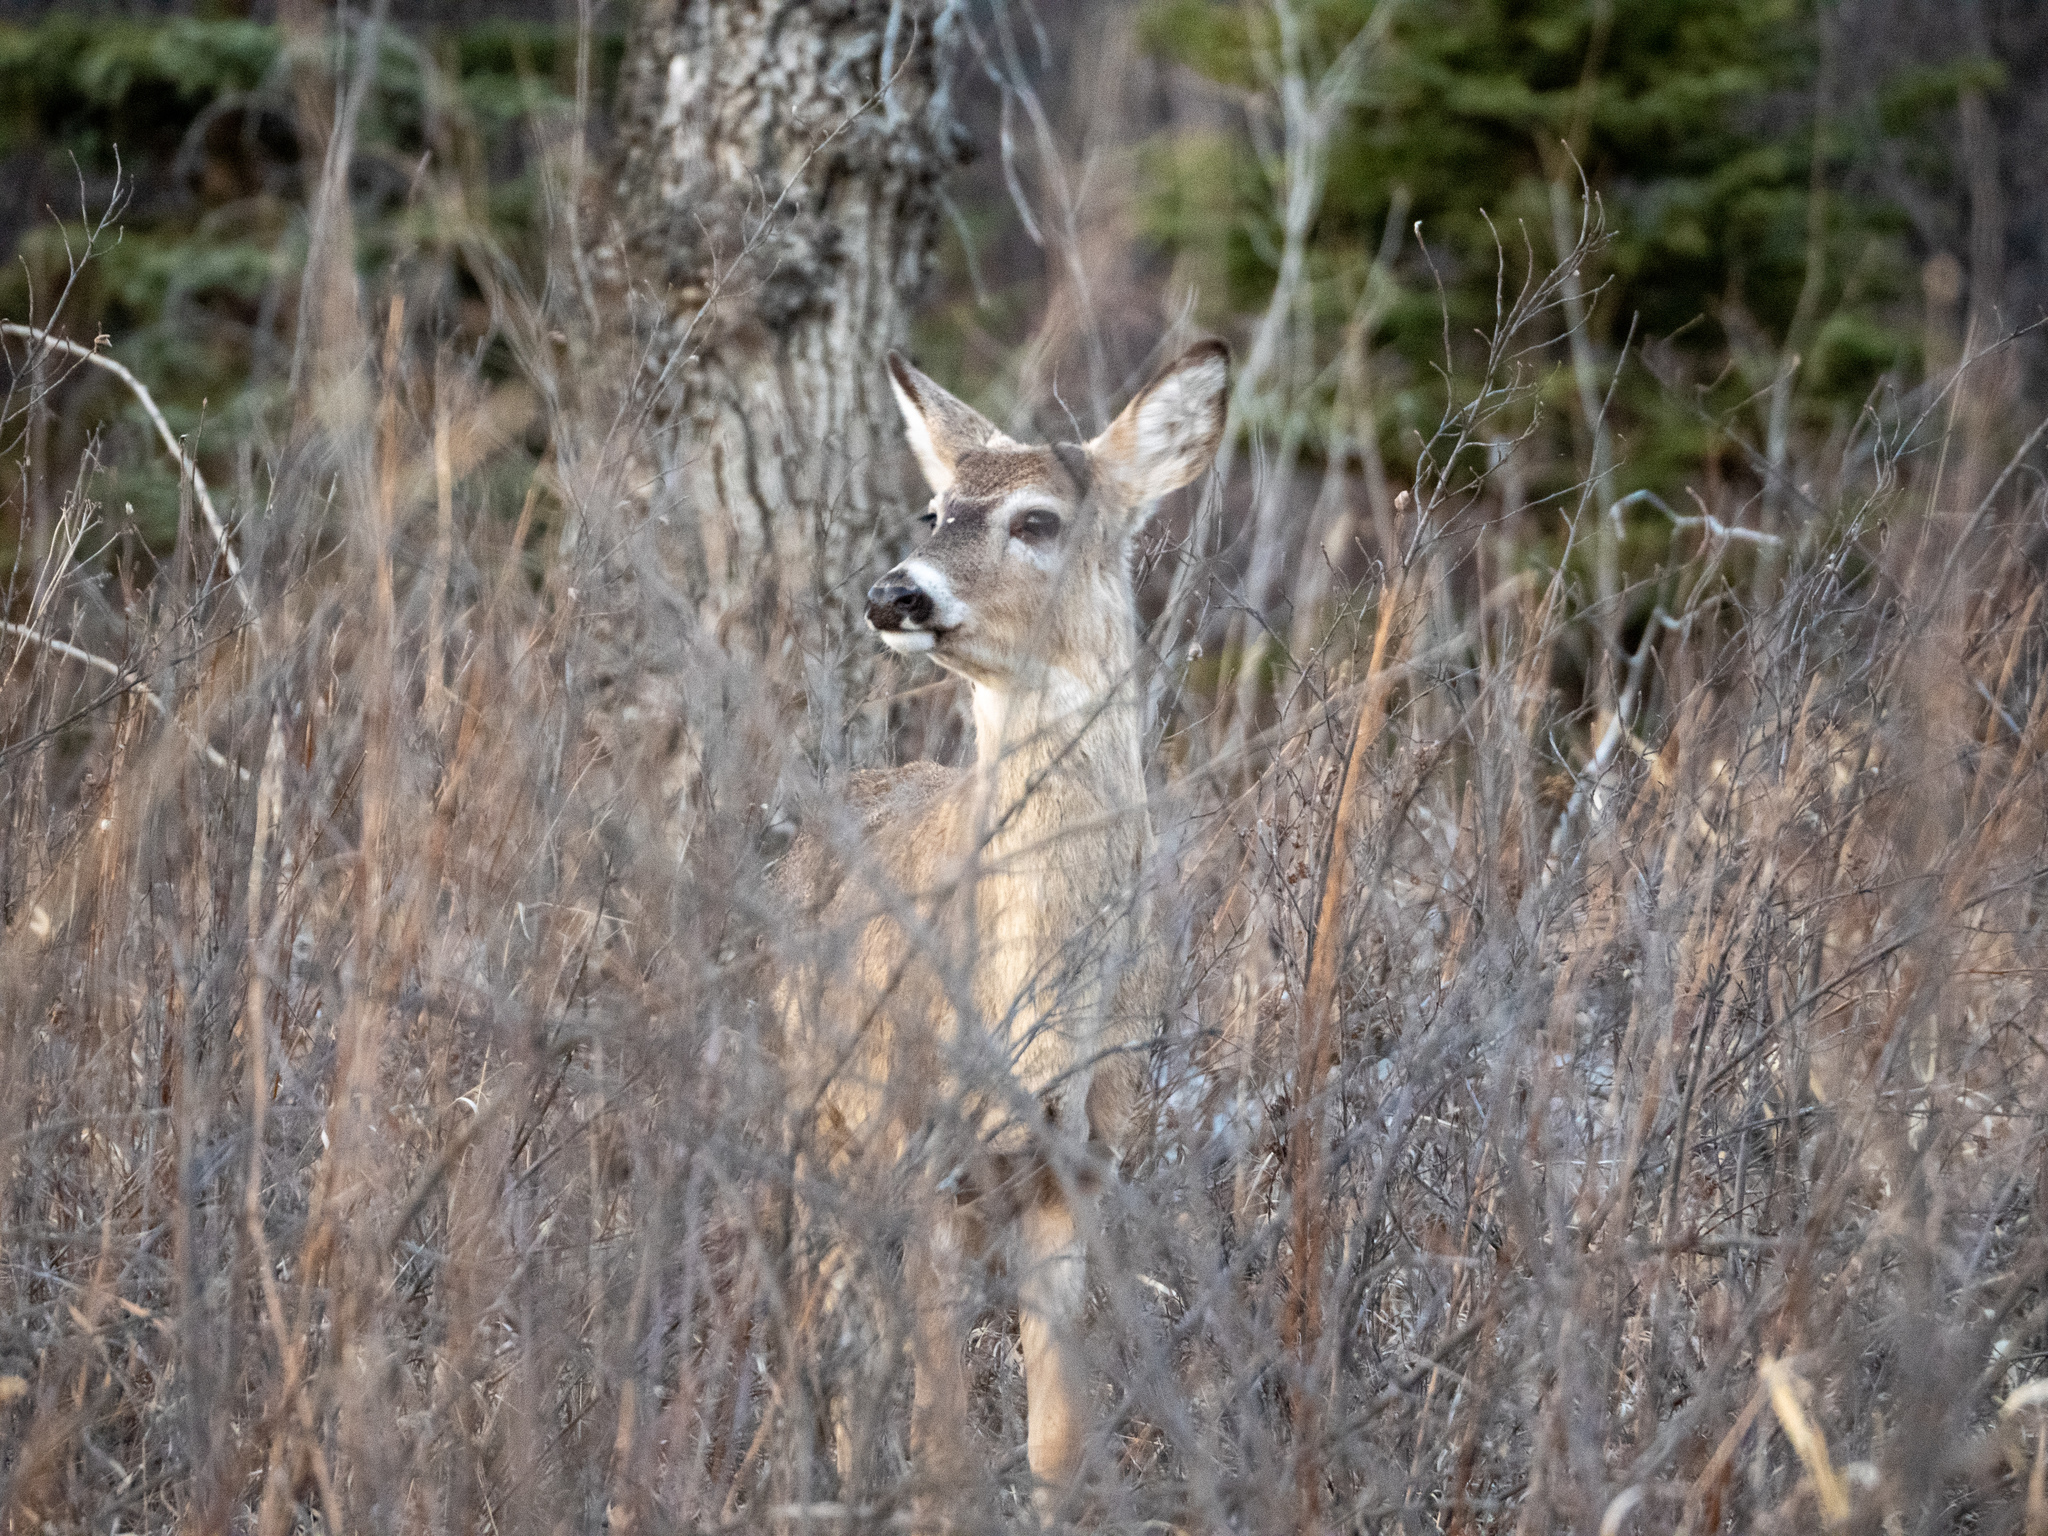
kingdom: Animalia
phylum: Chordata
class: Mammalia
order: Artiodactyla
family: Cervidae
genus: Odocoileus
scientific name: Odocoileus virginianus
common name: White-tailed deer
